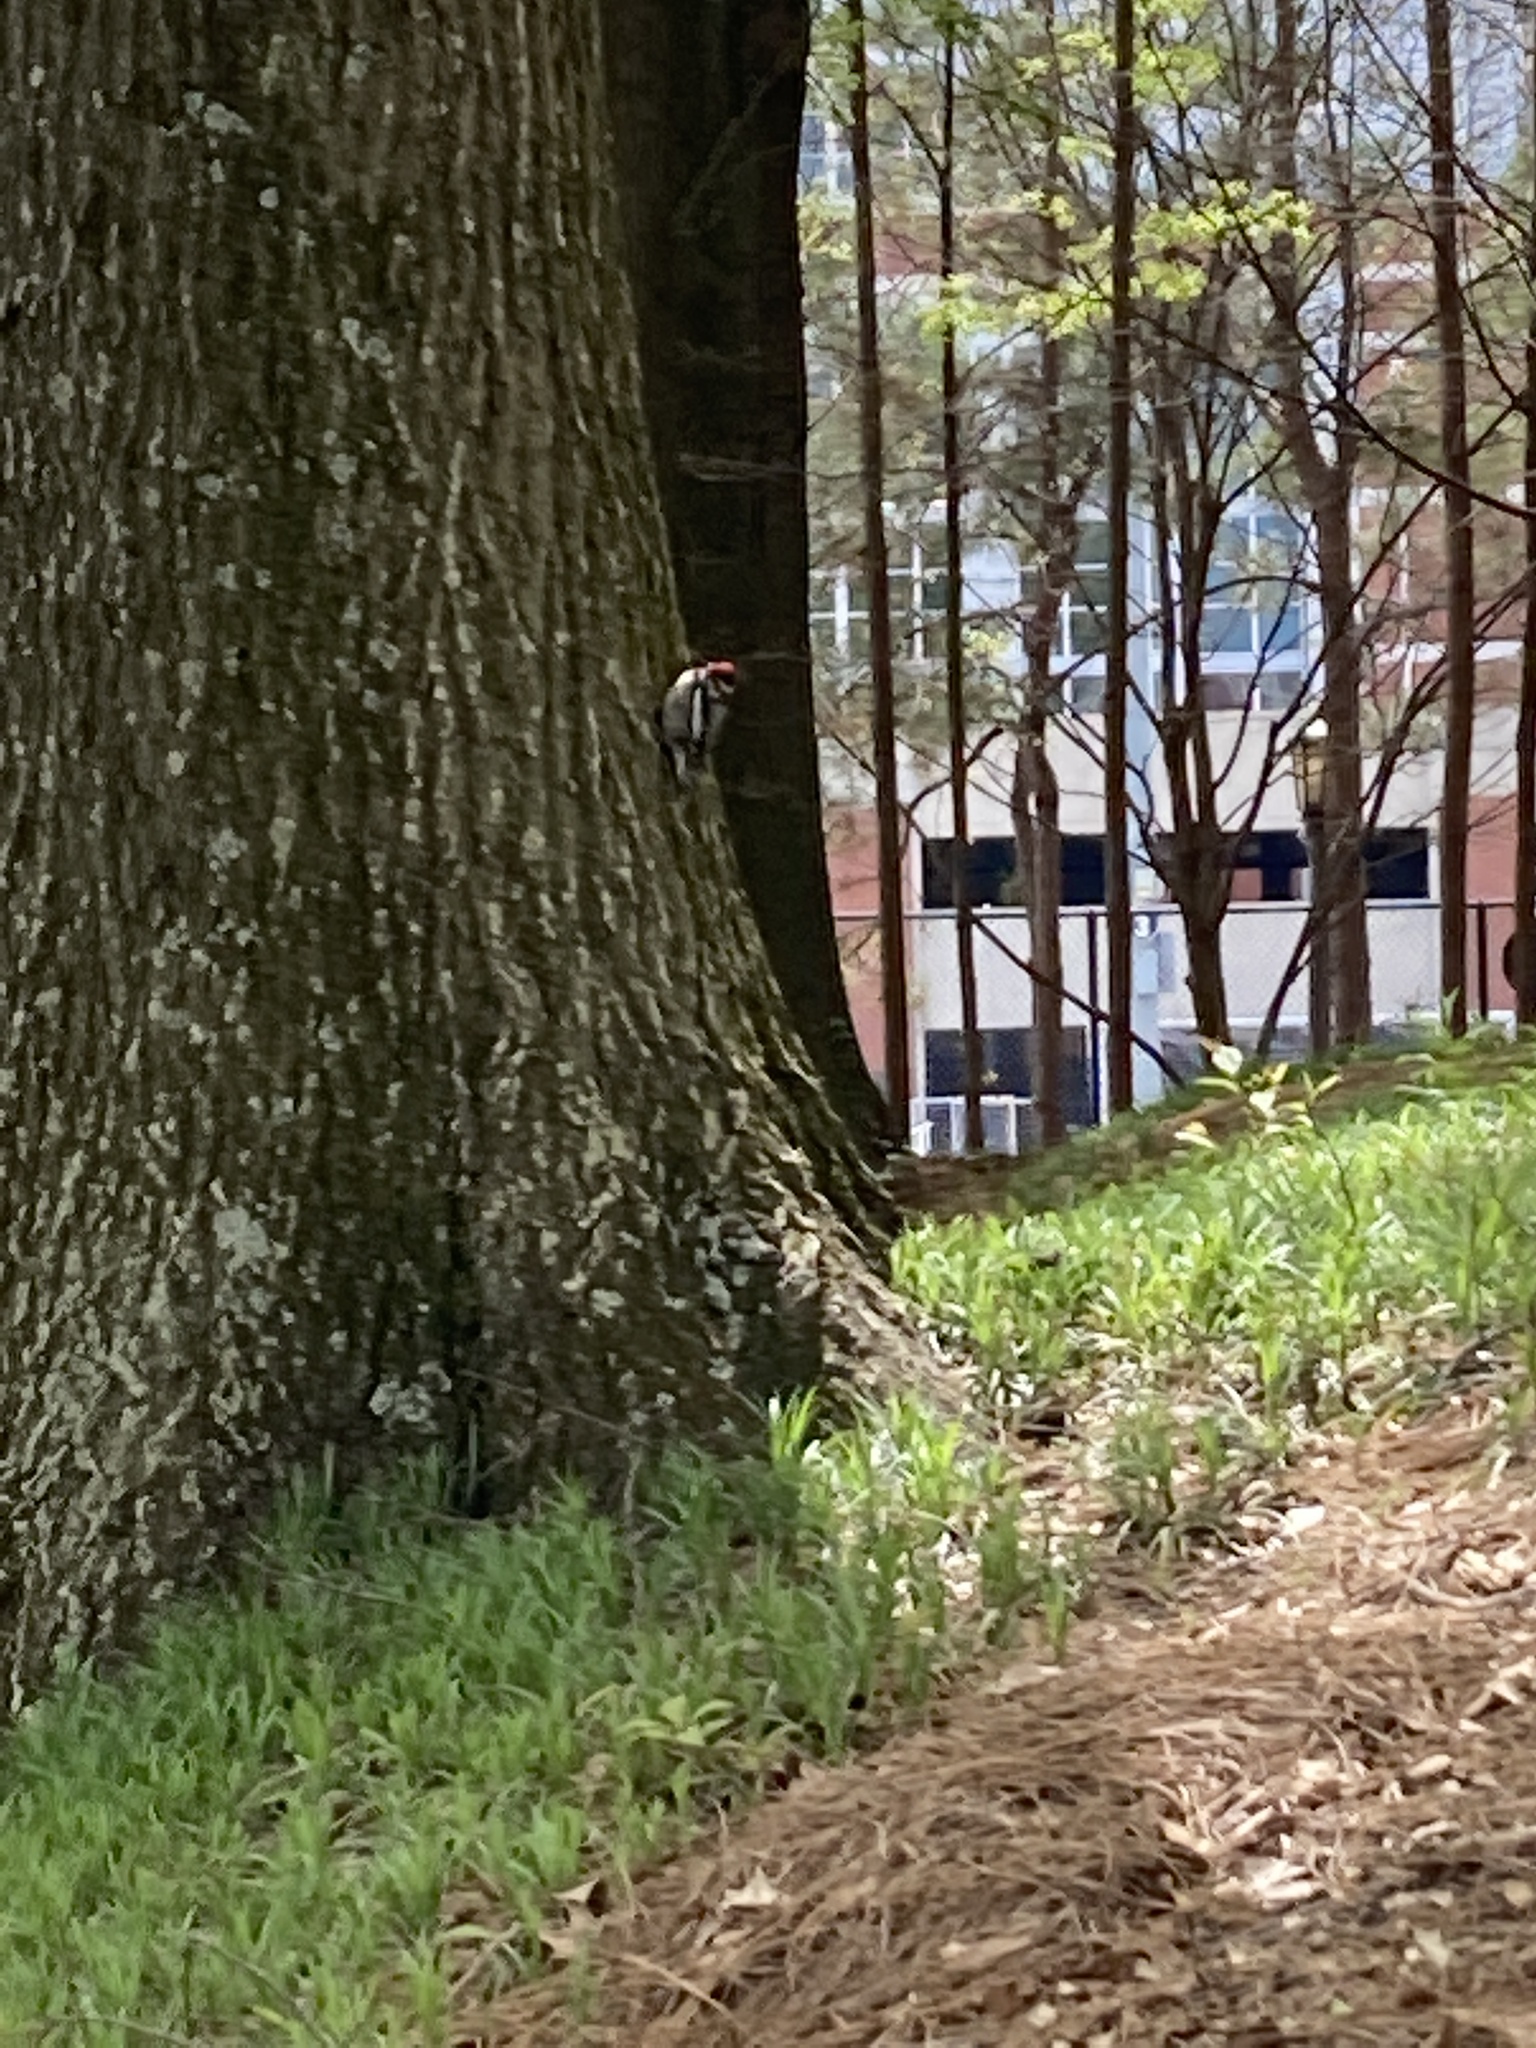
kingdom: Animalia
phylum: Chordata
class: Aves
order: Piciformes
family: Picidae
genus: Sphyrapicus
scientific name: Sphyrapicus varius
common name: Yellow-bellied sapsucker
